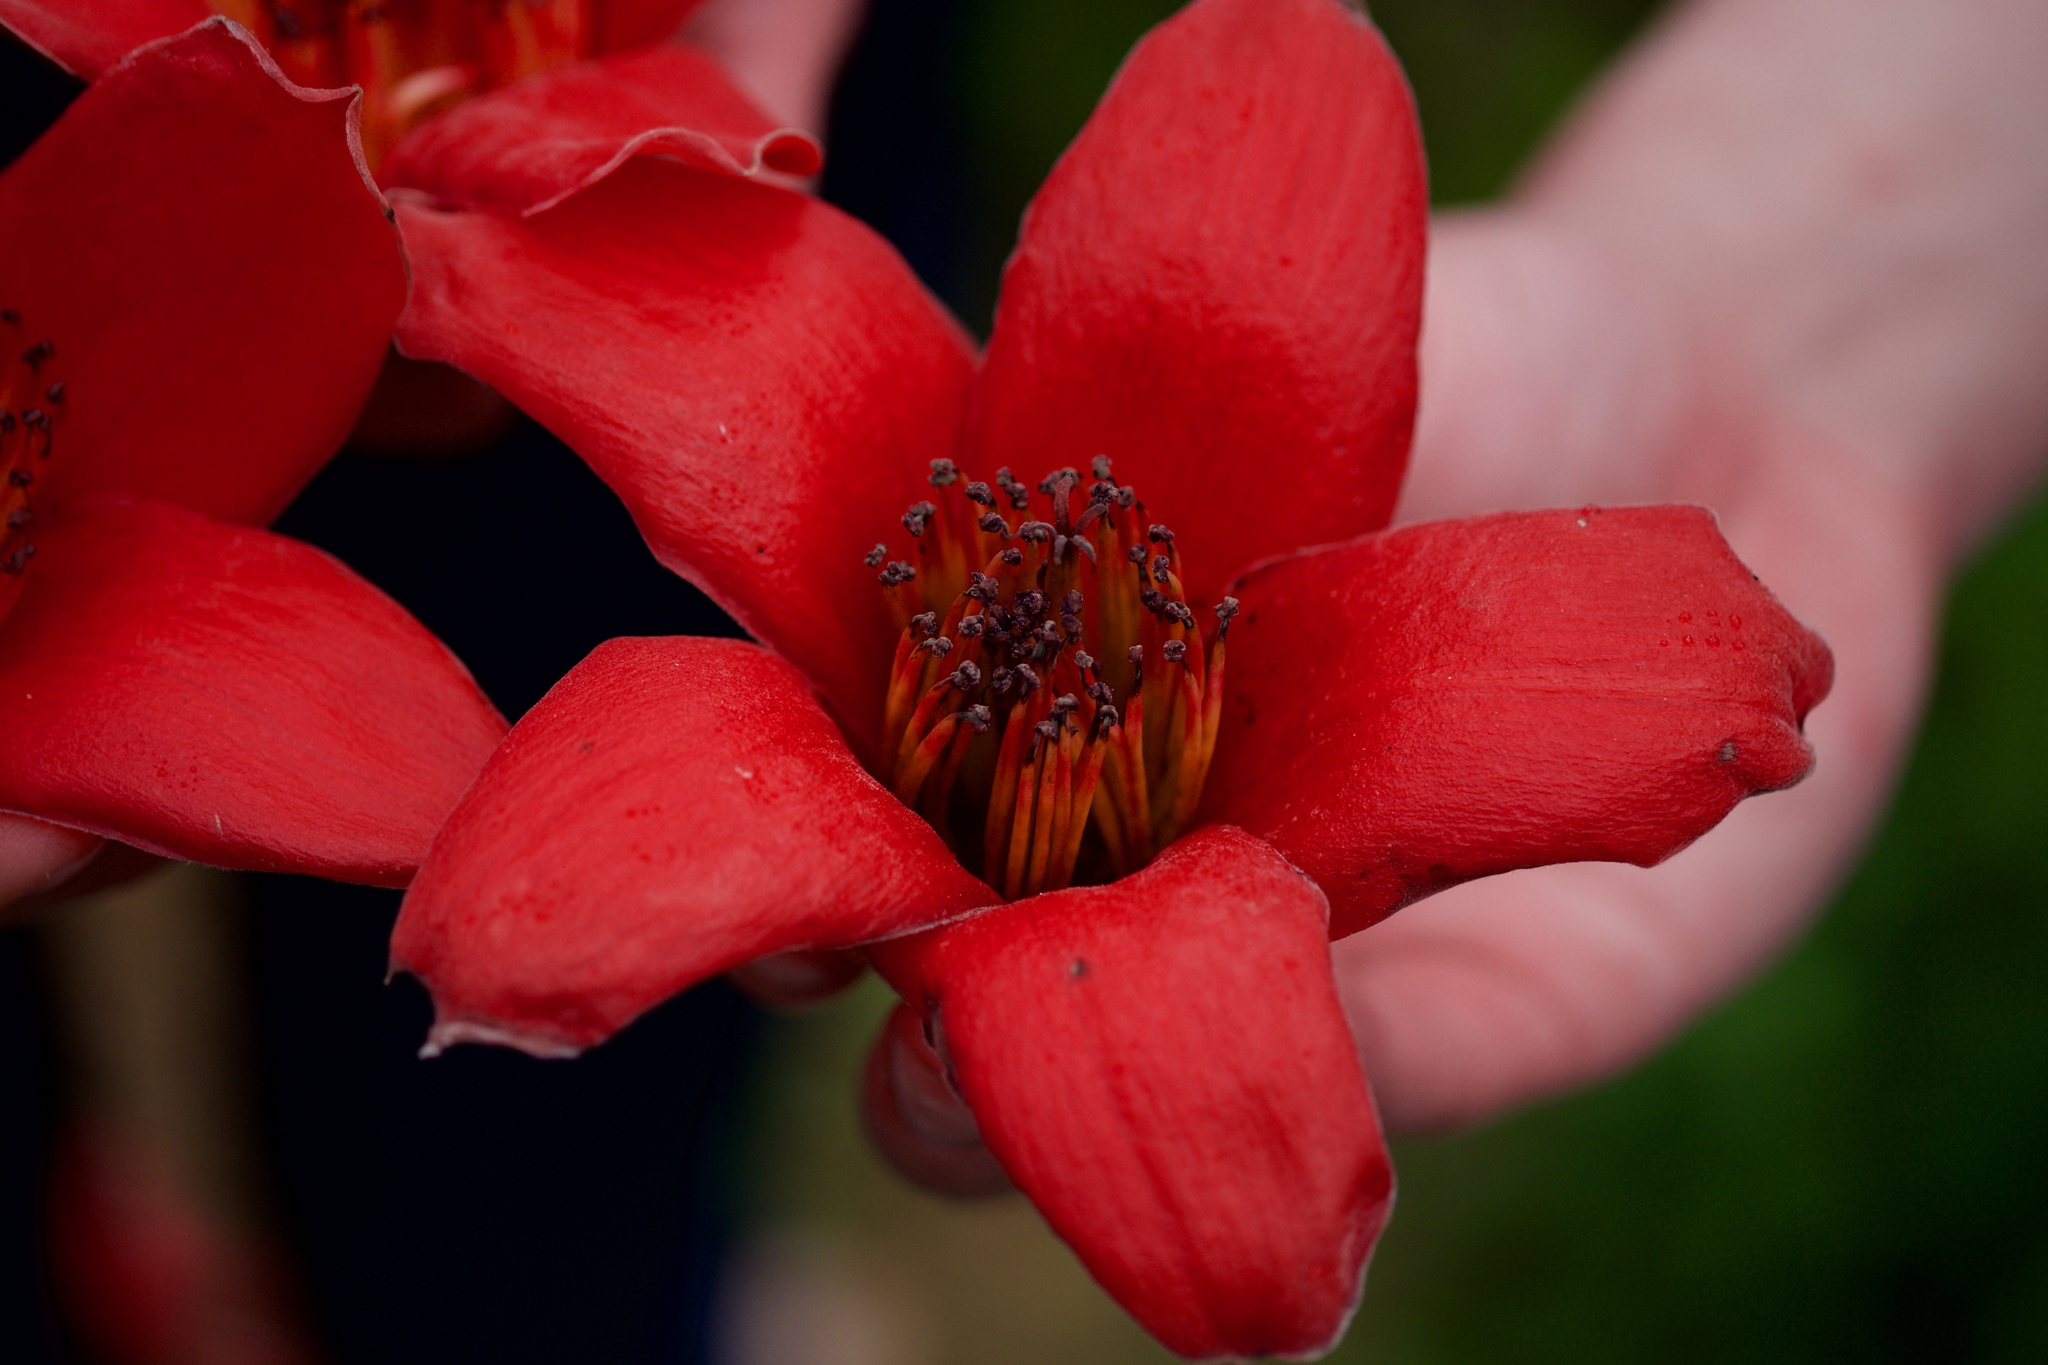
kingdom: Plantae
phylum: Tracheophyta
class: Magnoliopsida
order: Malvales
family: Malvaceae
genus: Bombax
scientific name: Bombax ceiba
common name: Northern-cottonwood
